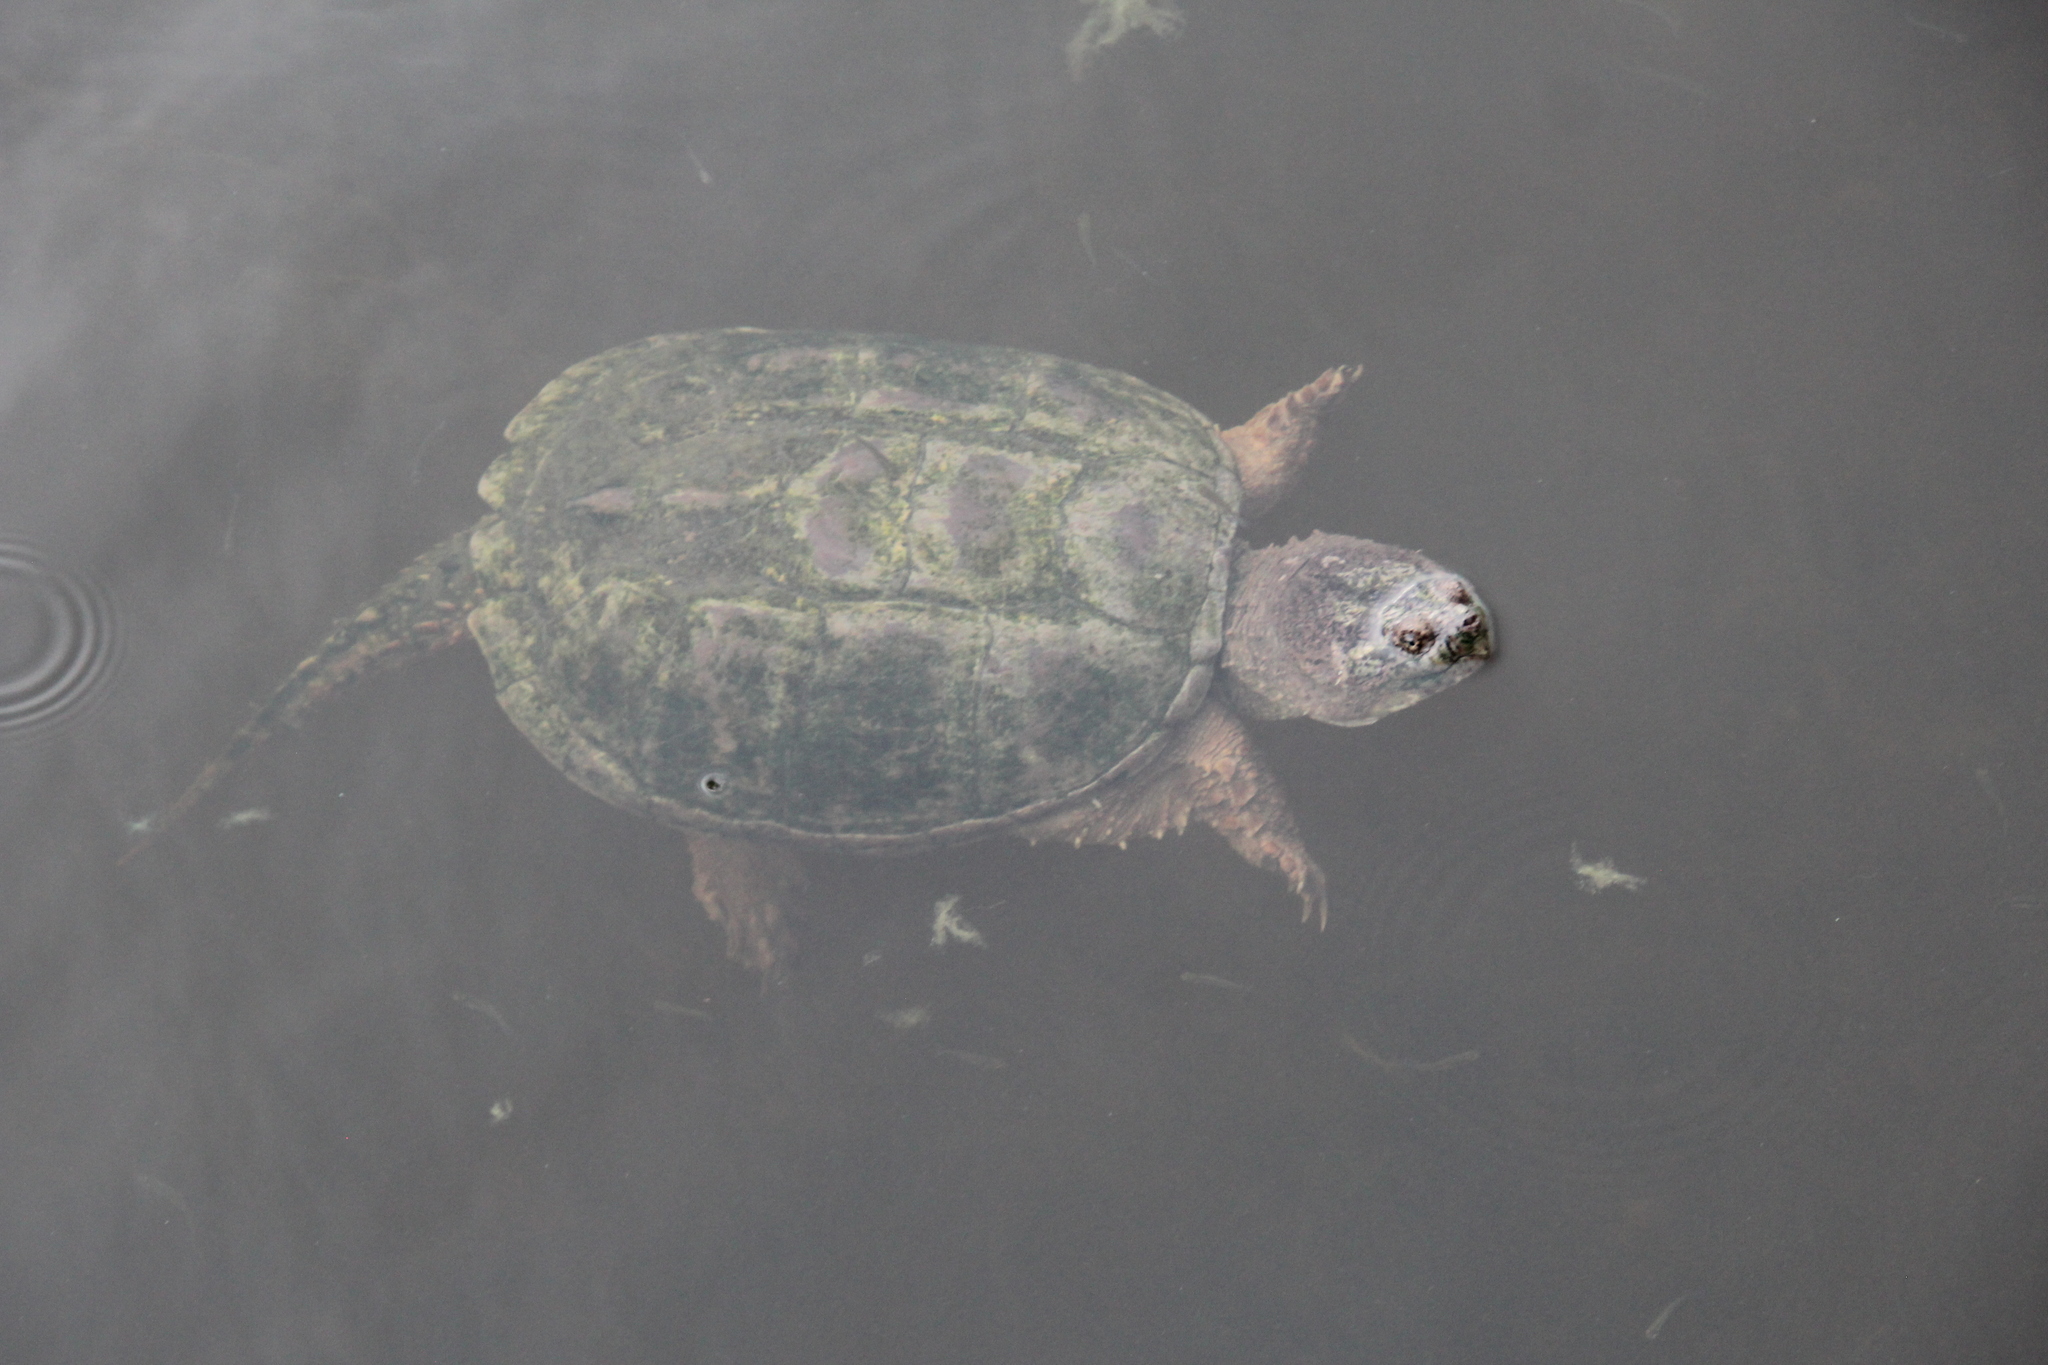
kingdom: Animalia
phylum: Chordata
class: Testudines
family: Chelydridae
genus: Chelydra
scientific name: Chelydra serpentina
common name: Common snapping turtle
